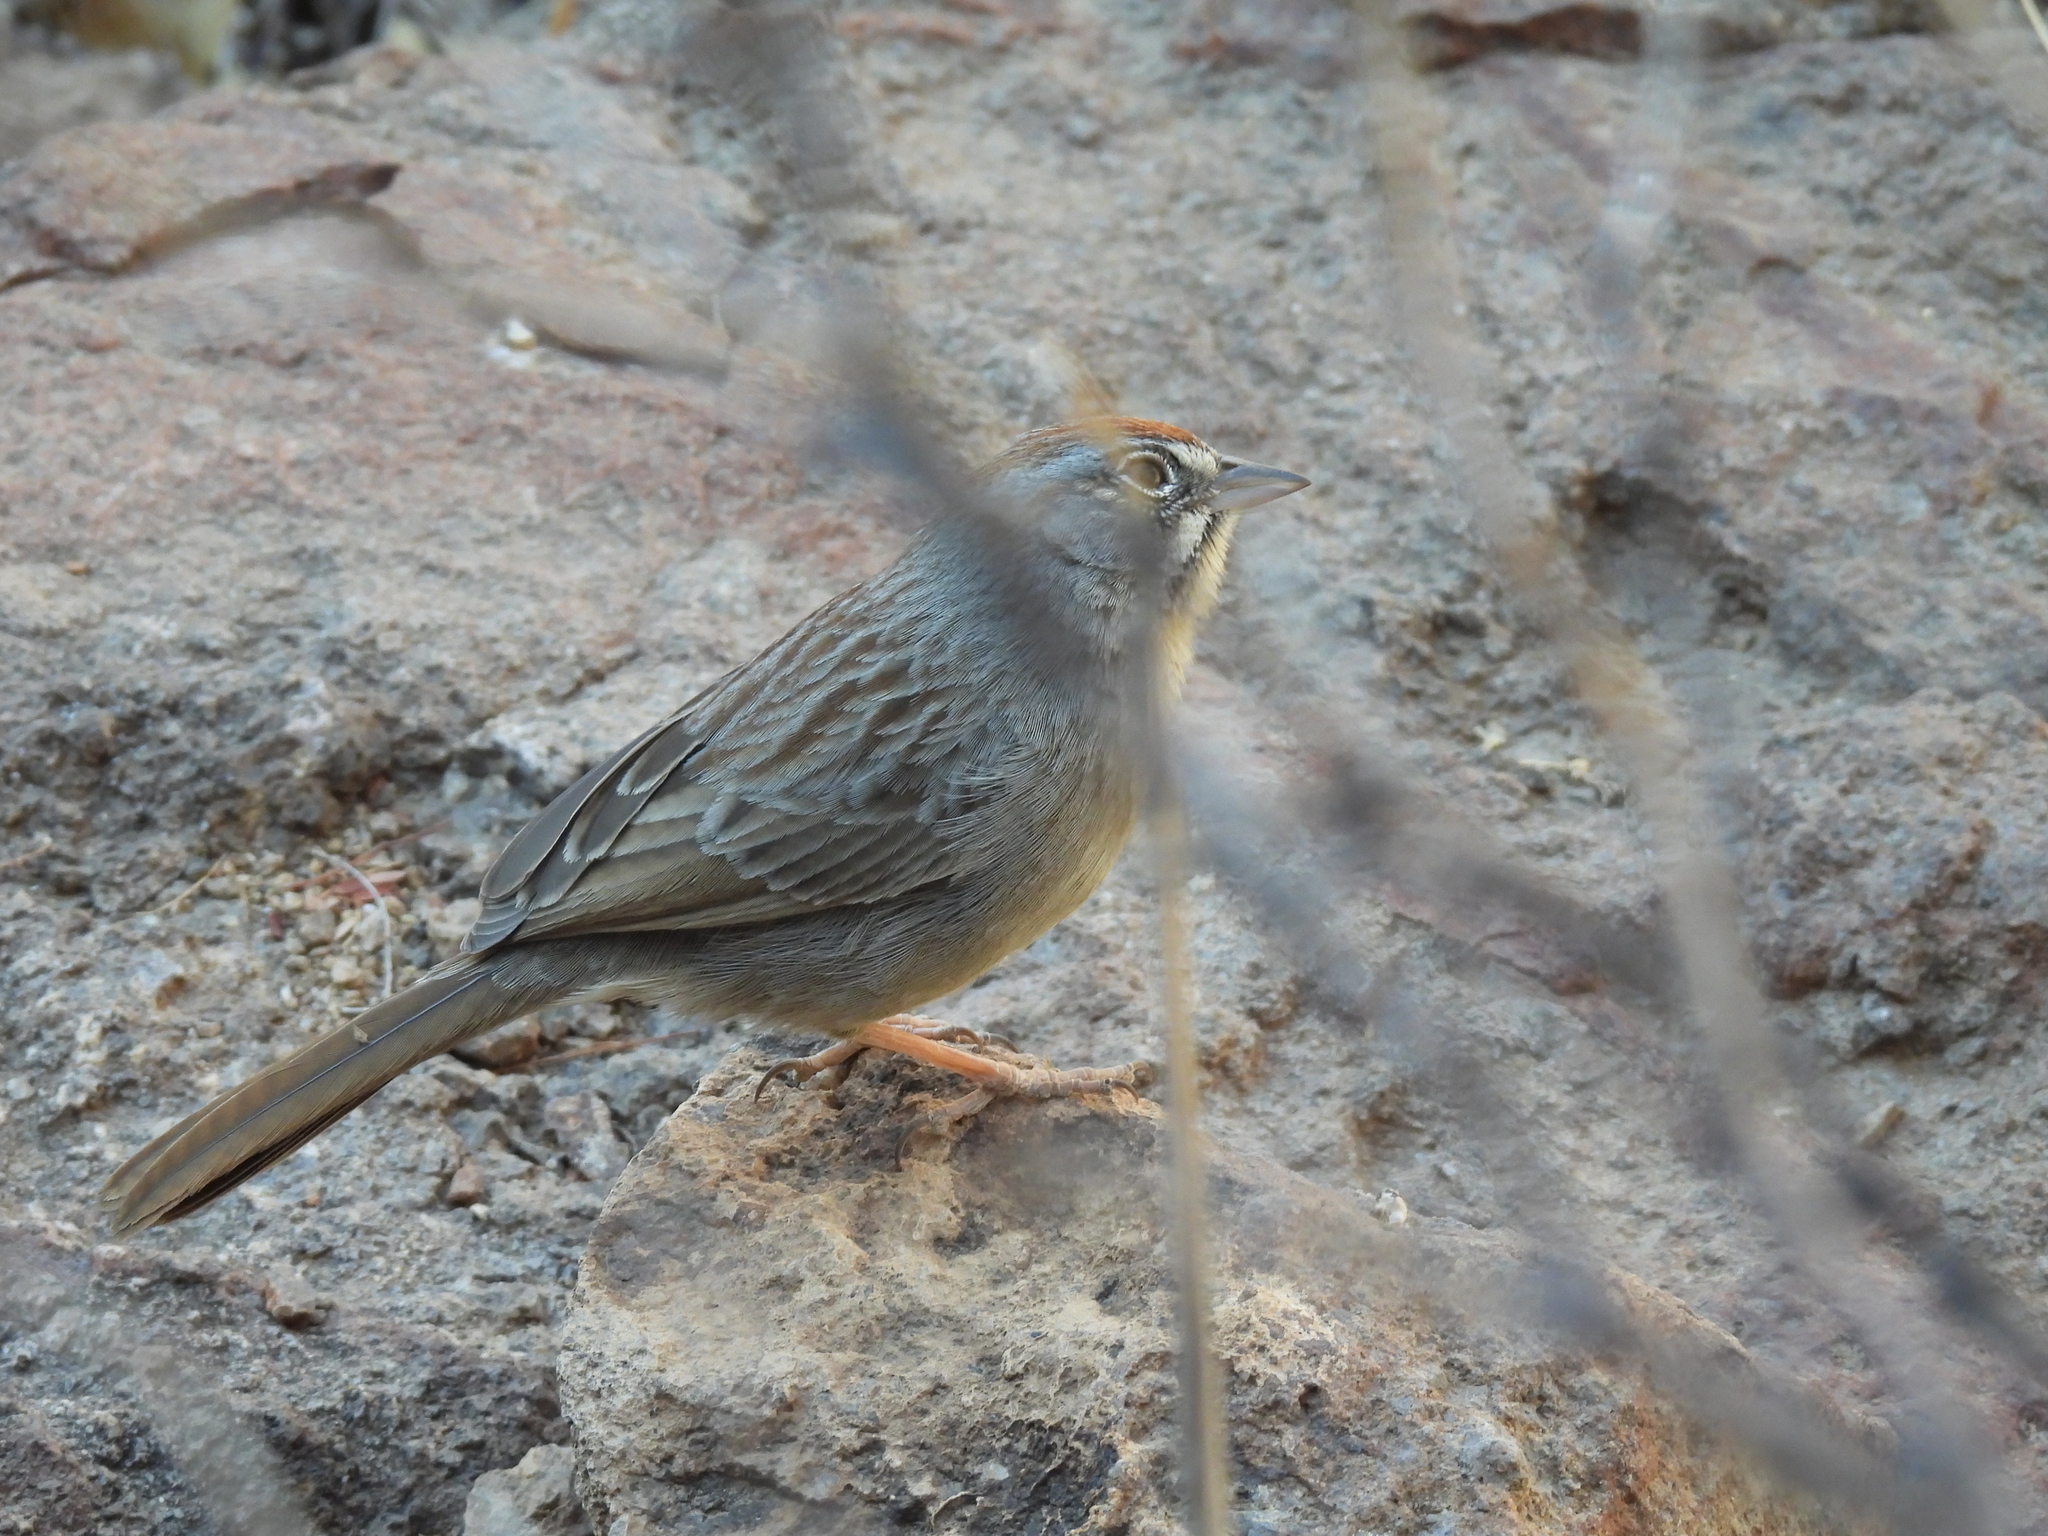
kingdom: Animalia
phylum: Chordata
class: Aves
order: Passeriformes
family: Passerellidae
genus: Aimophila
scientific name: Aimophila ruficeps
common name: Rufous-crowned sparrow
